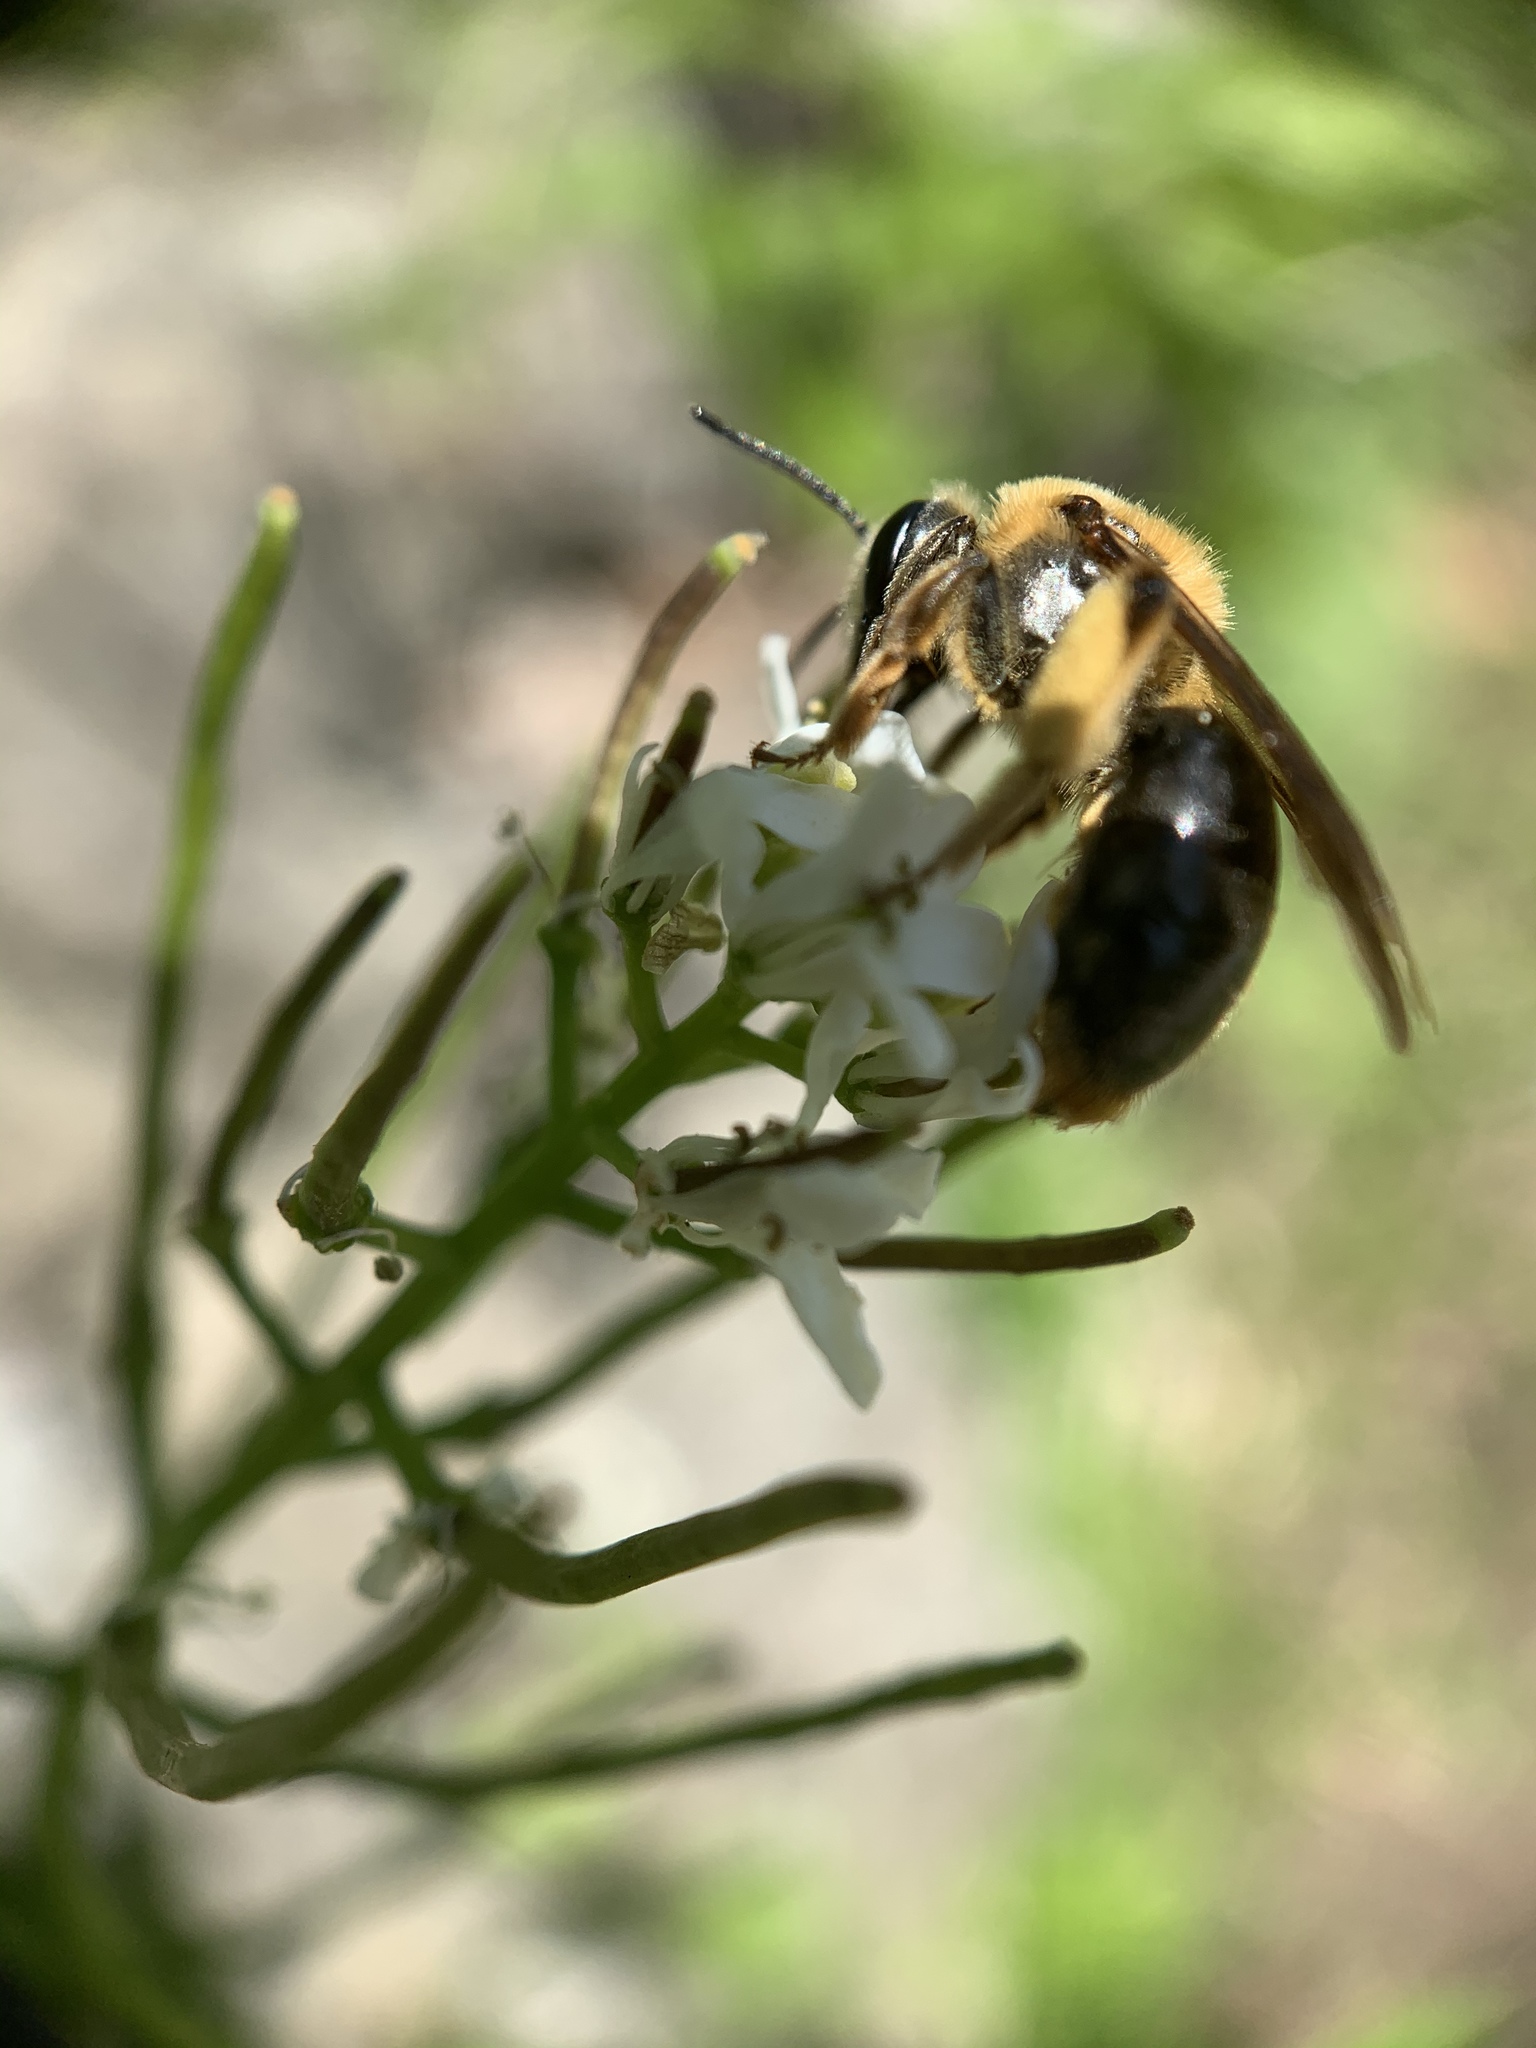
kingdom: Animalia
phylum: Arthropoda
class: Insecta
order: Hymenoptera
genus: Melandrena
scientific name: Melandrena
